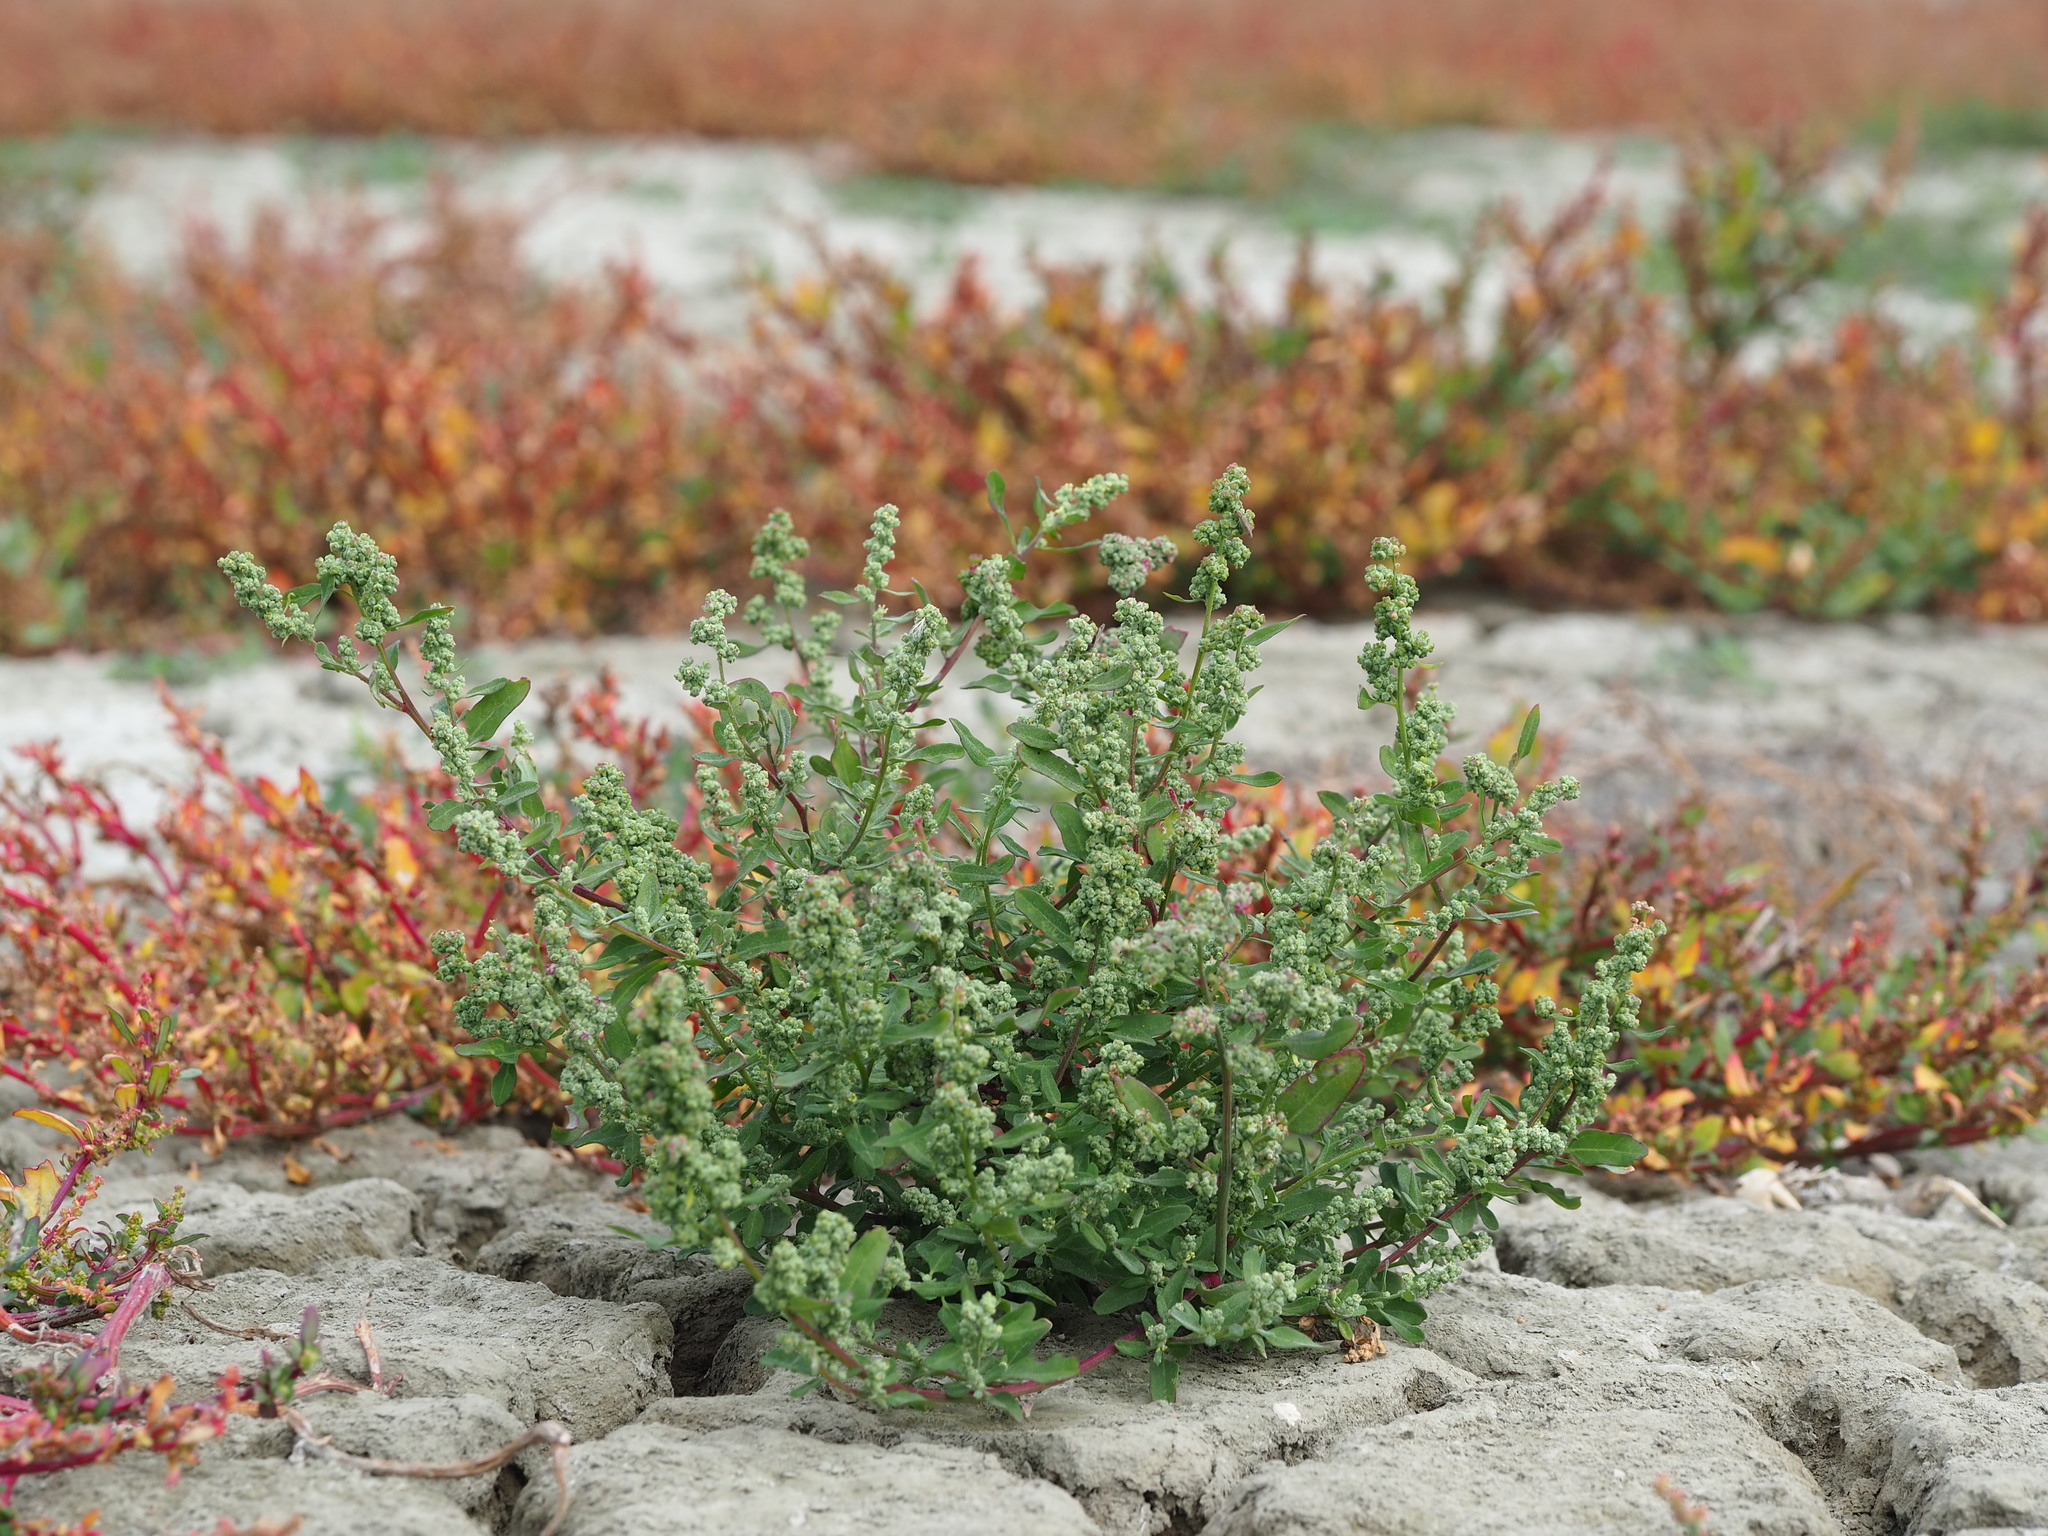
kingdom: Plantae
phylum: Tracheophyta
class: Magnoliopsida
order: Caryophyllales
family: Amaranthaceae
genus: Chenopodium
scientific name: Chenopodium ficifolium
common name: Fig-leaved goosefoot
